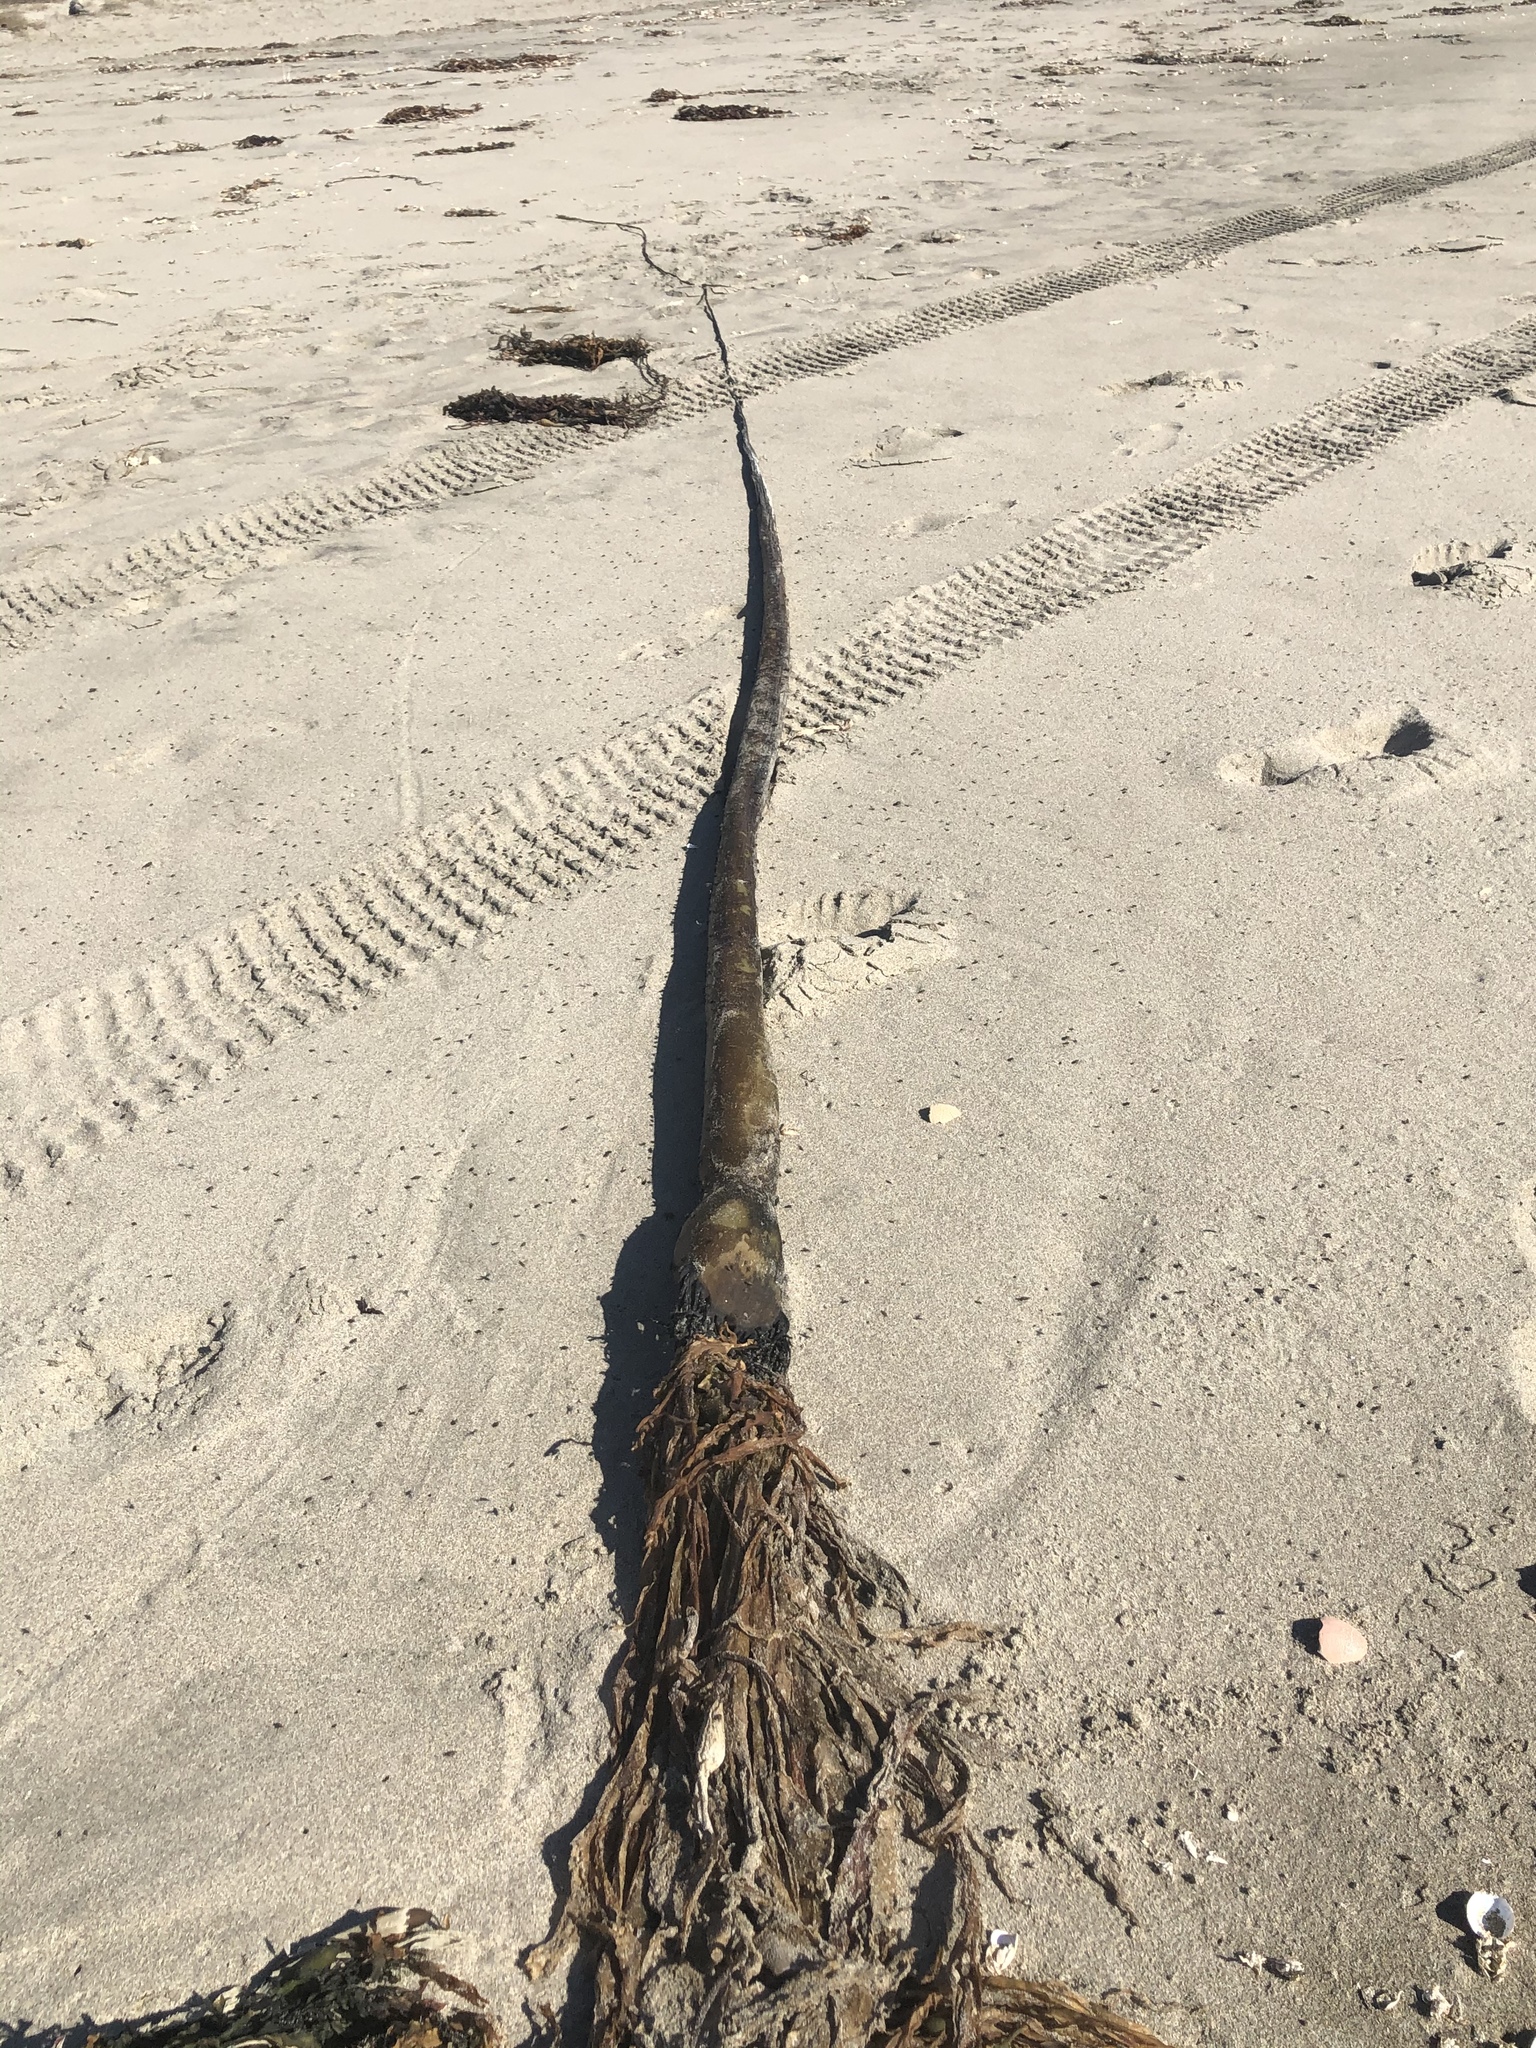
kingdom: Chromista
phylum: Ochrophyta
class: Phaeophyceae
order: Laminariales
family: Laminariaceae
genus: Nereocystis
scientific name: Nereocystis luetkeana
